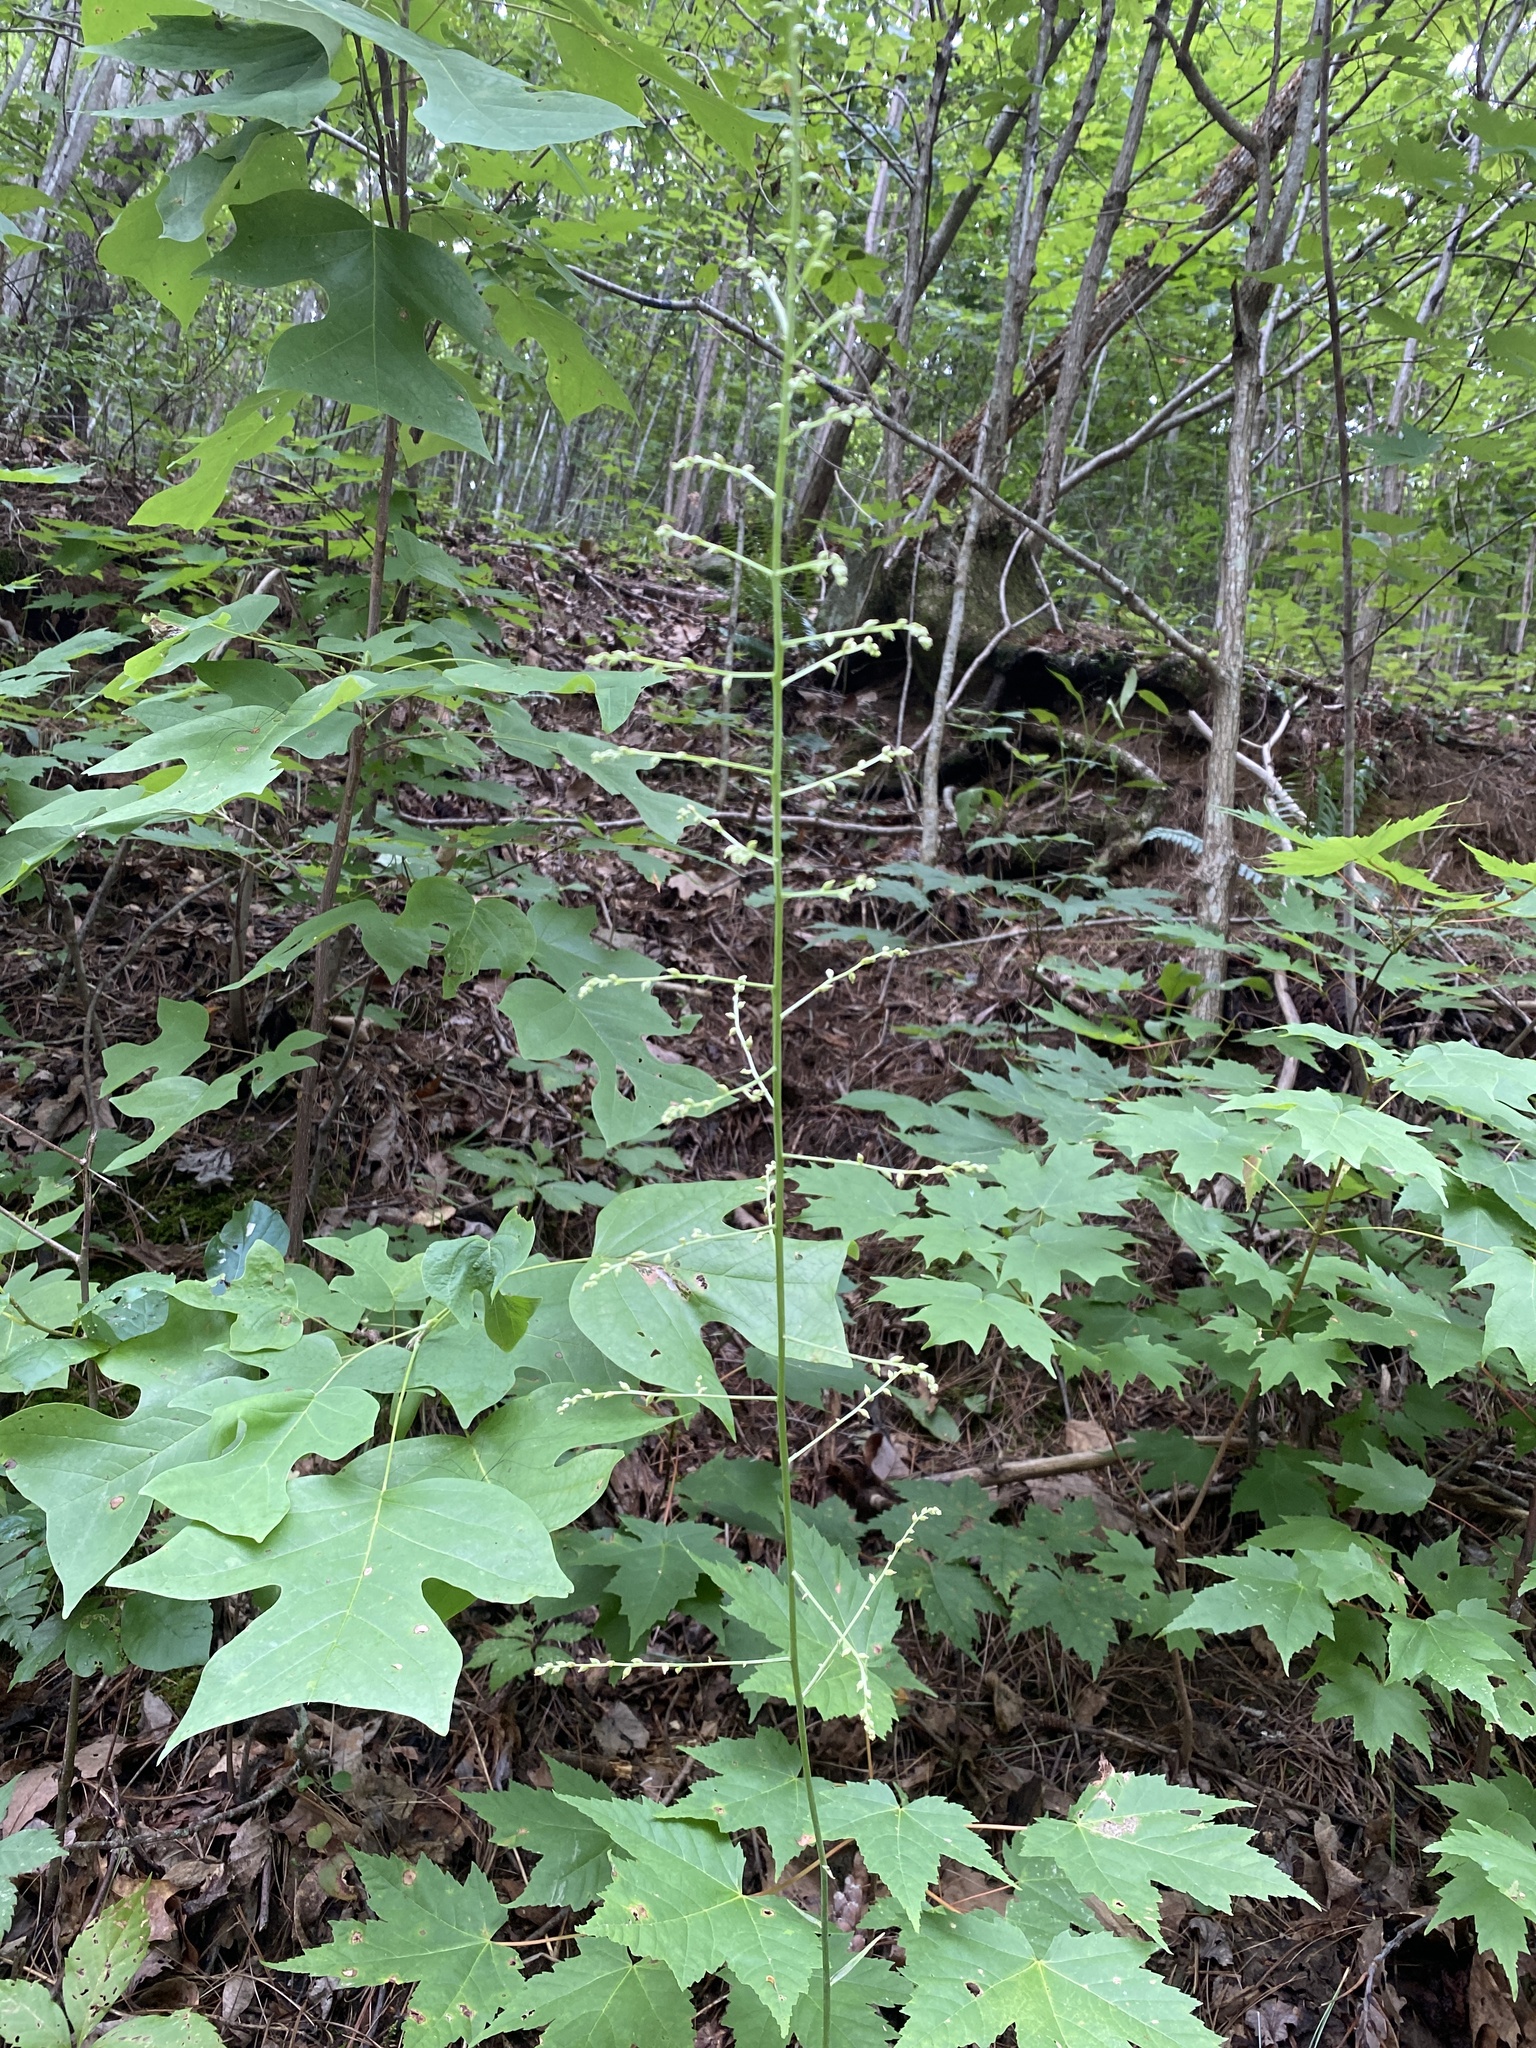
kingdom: Plantae
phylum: Tracheophyta
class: Liliopsida
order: Liliales
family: Melanthiaceae
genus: Stenanthium
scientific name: Stenanthium gramineum
